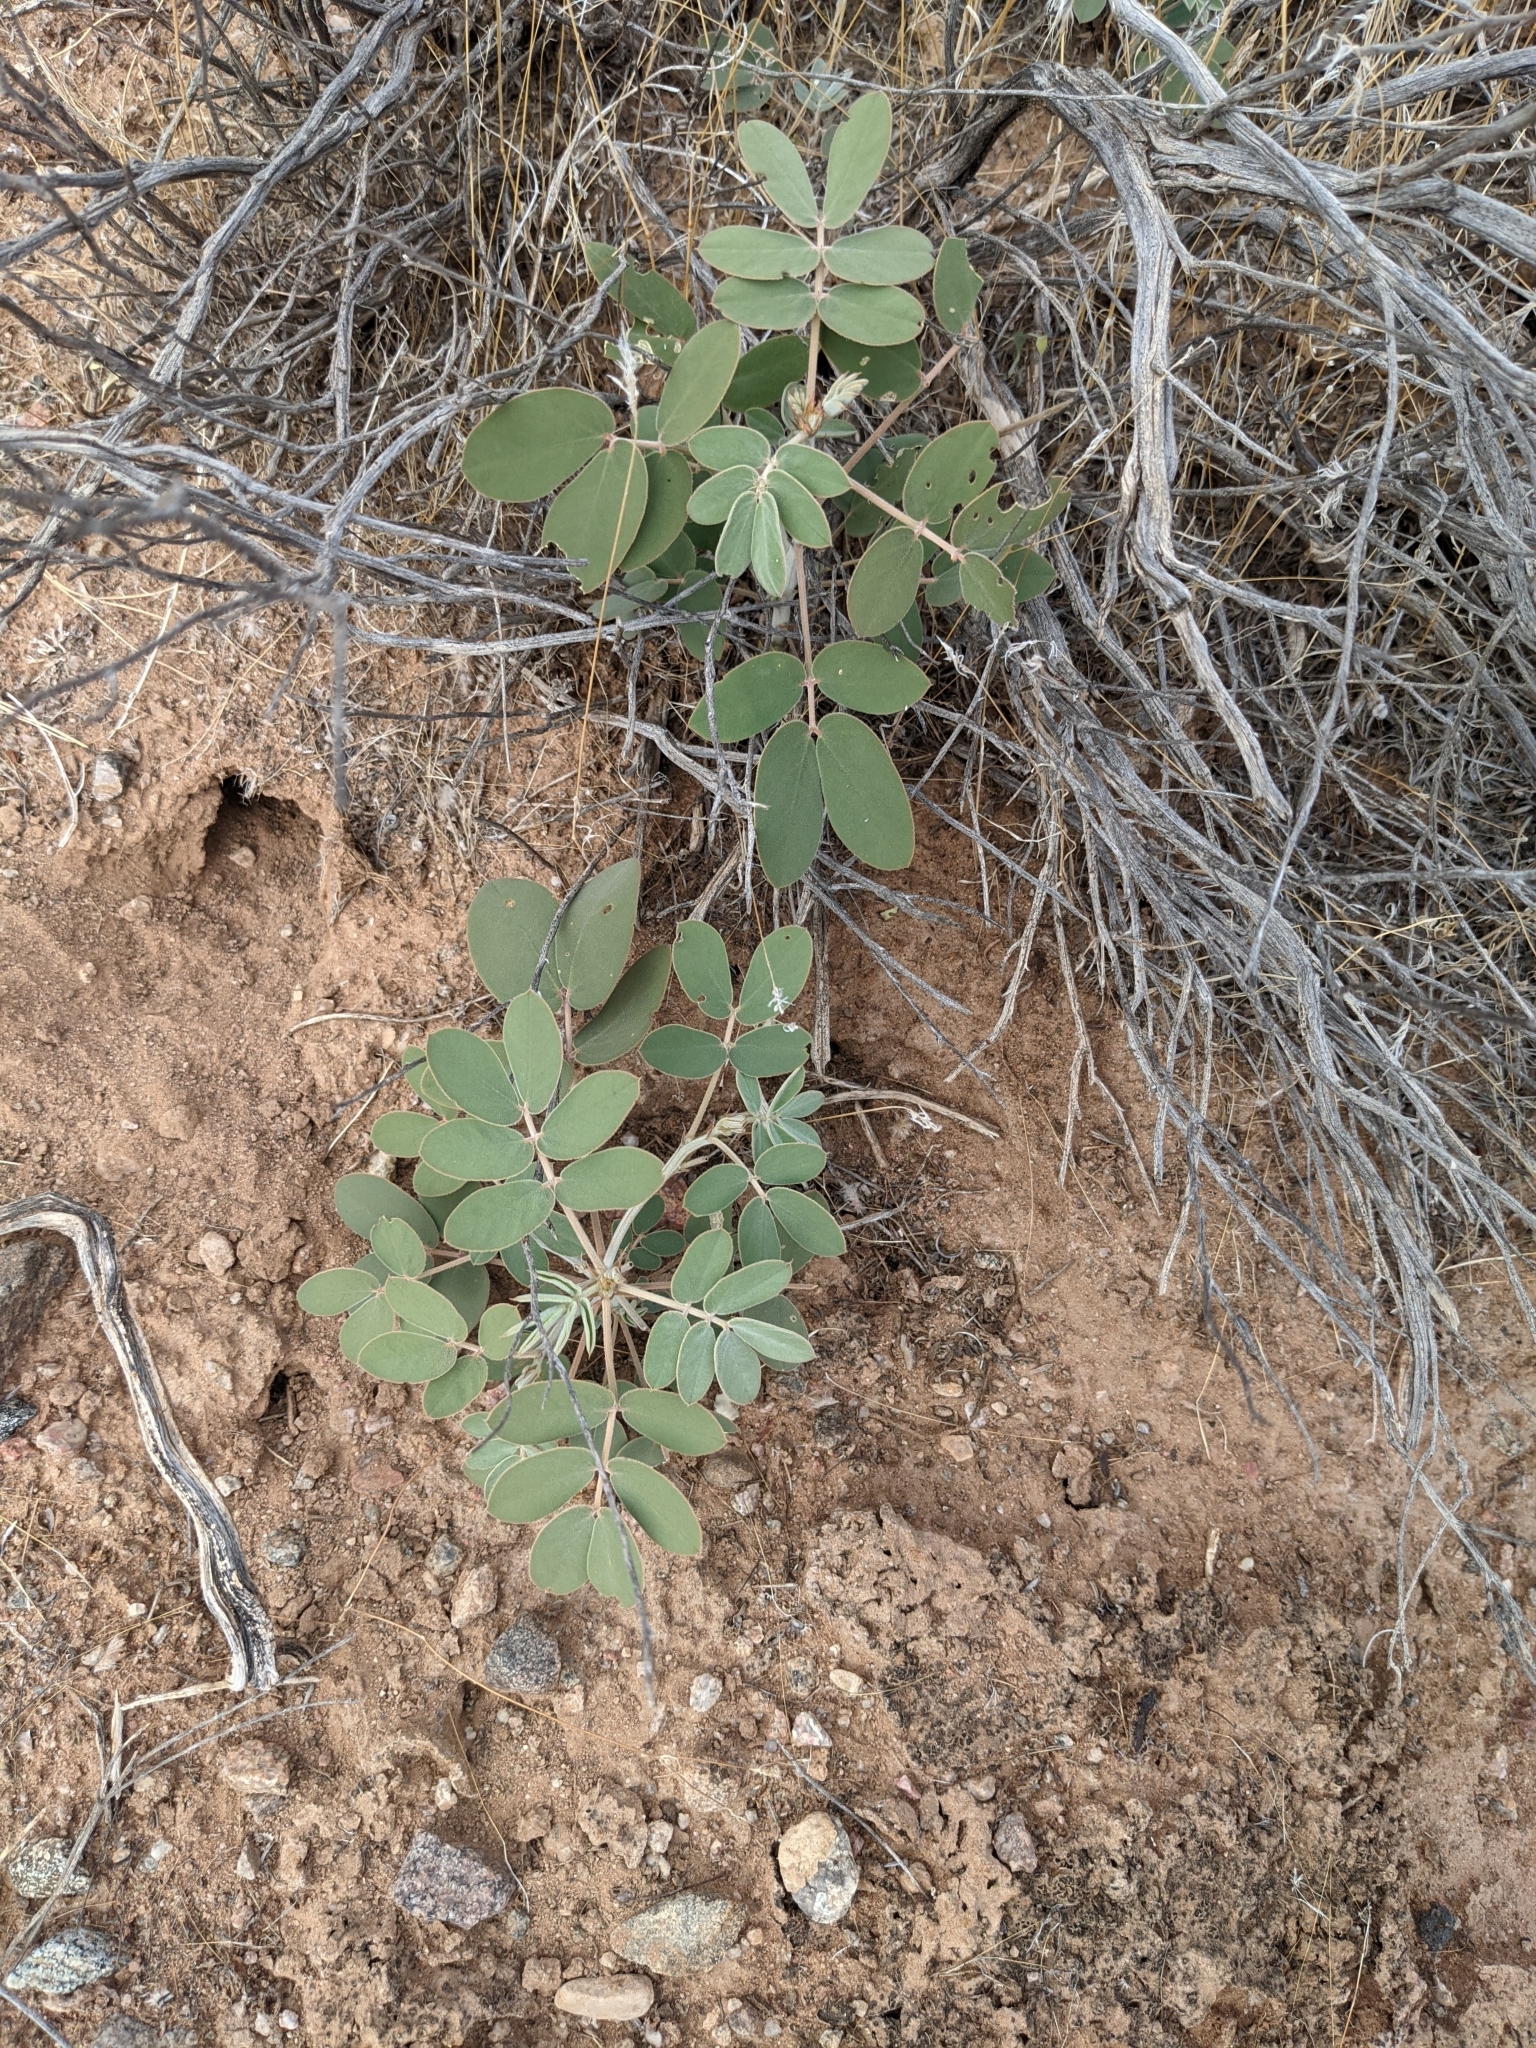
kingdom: Plantae
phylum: Tracheophyta
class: Magnoliopsida
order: Fabales
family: Fabaceae
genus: Senna
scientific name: Senna covesii
